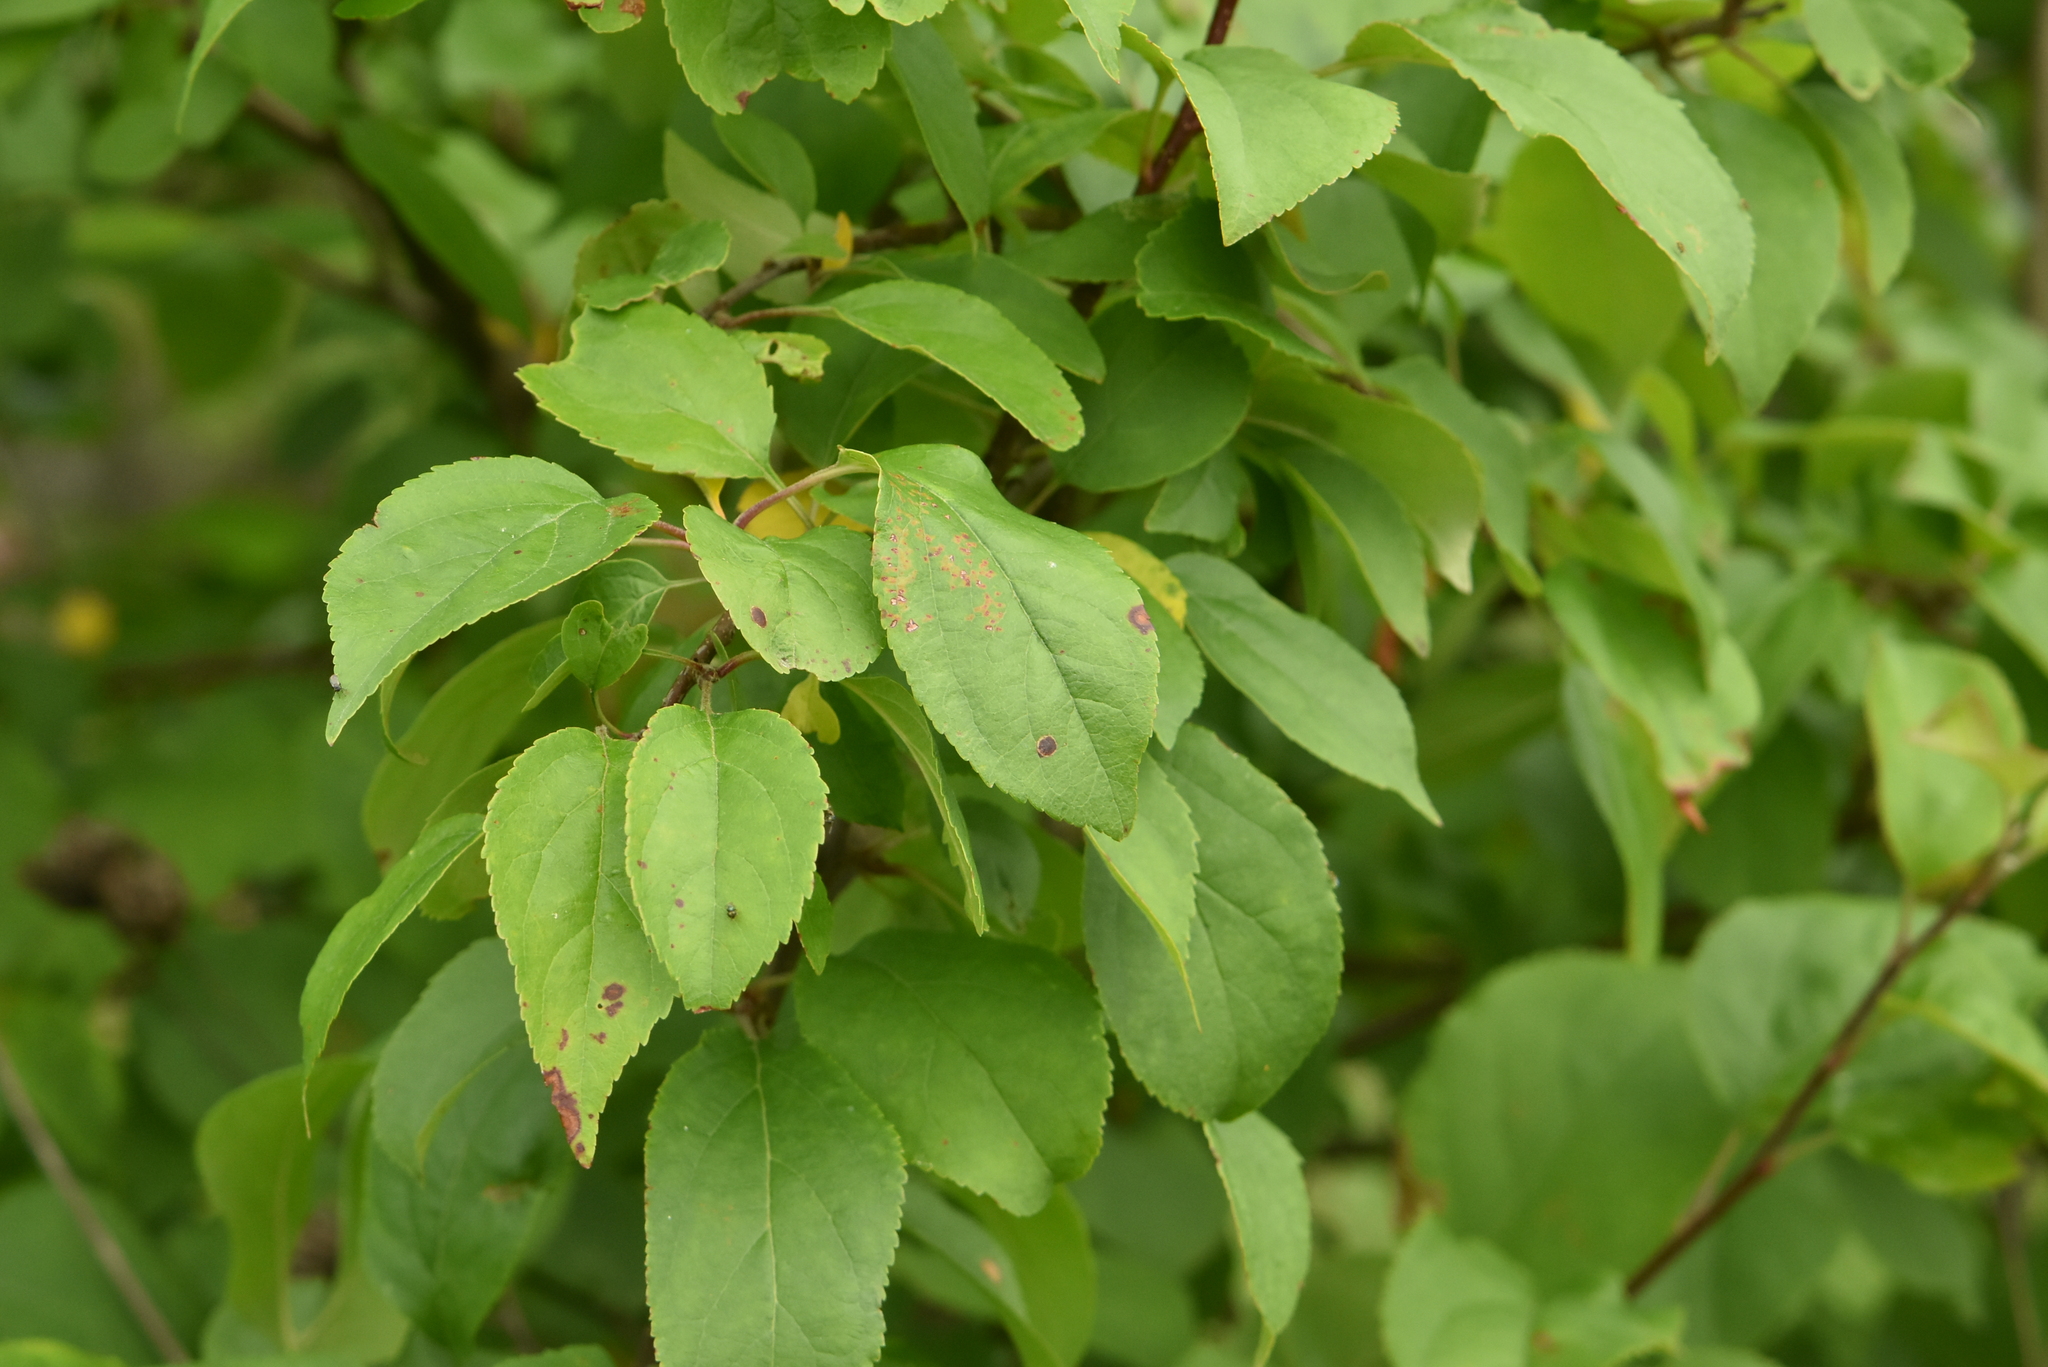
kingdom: Plantae
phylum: Tracheophyta
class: Magnoliopsida
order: Rosales
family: Rosaceae
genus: Malus
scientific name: Malus domestica
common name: Apple
